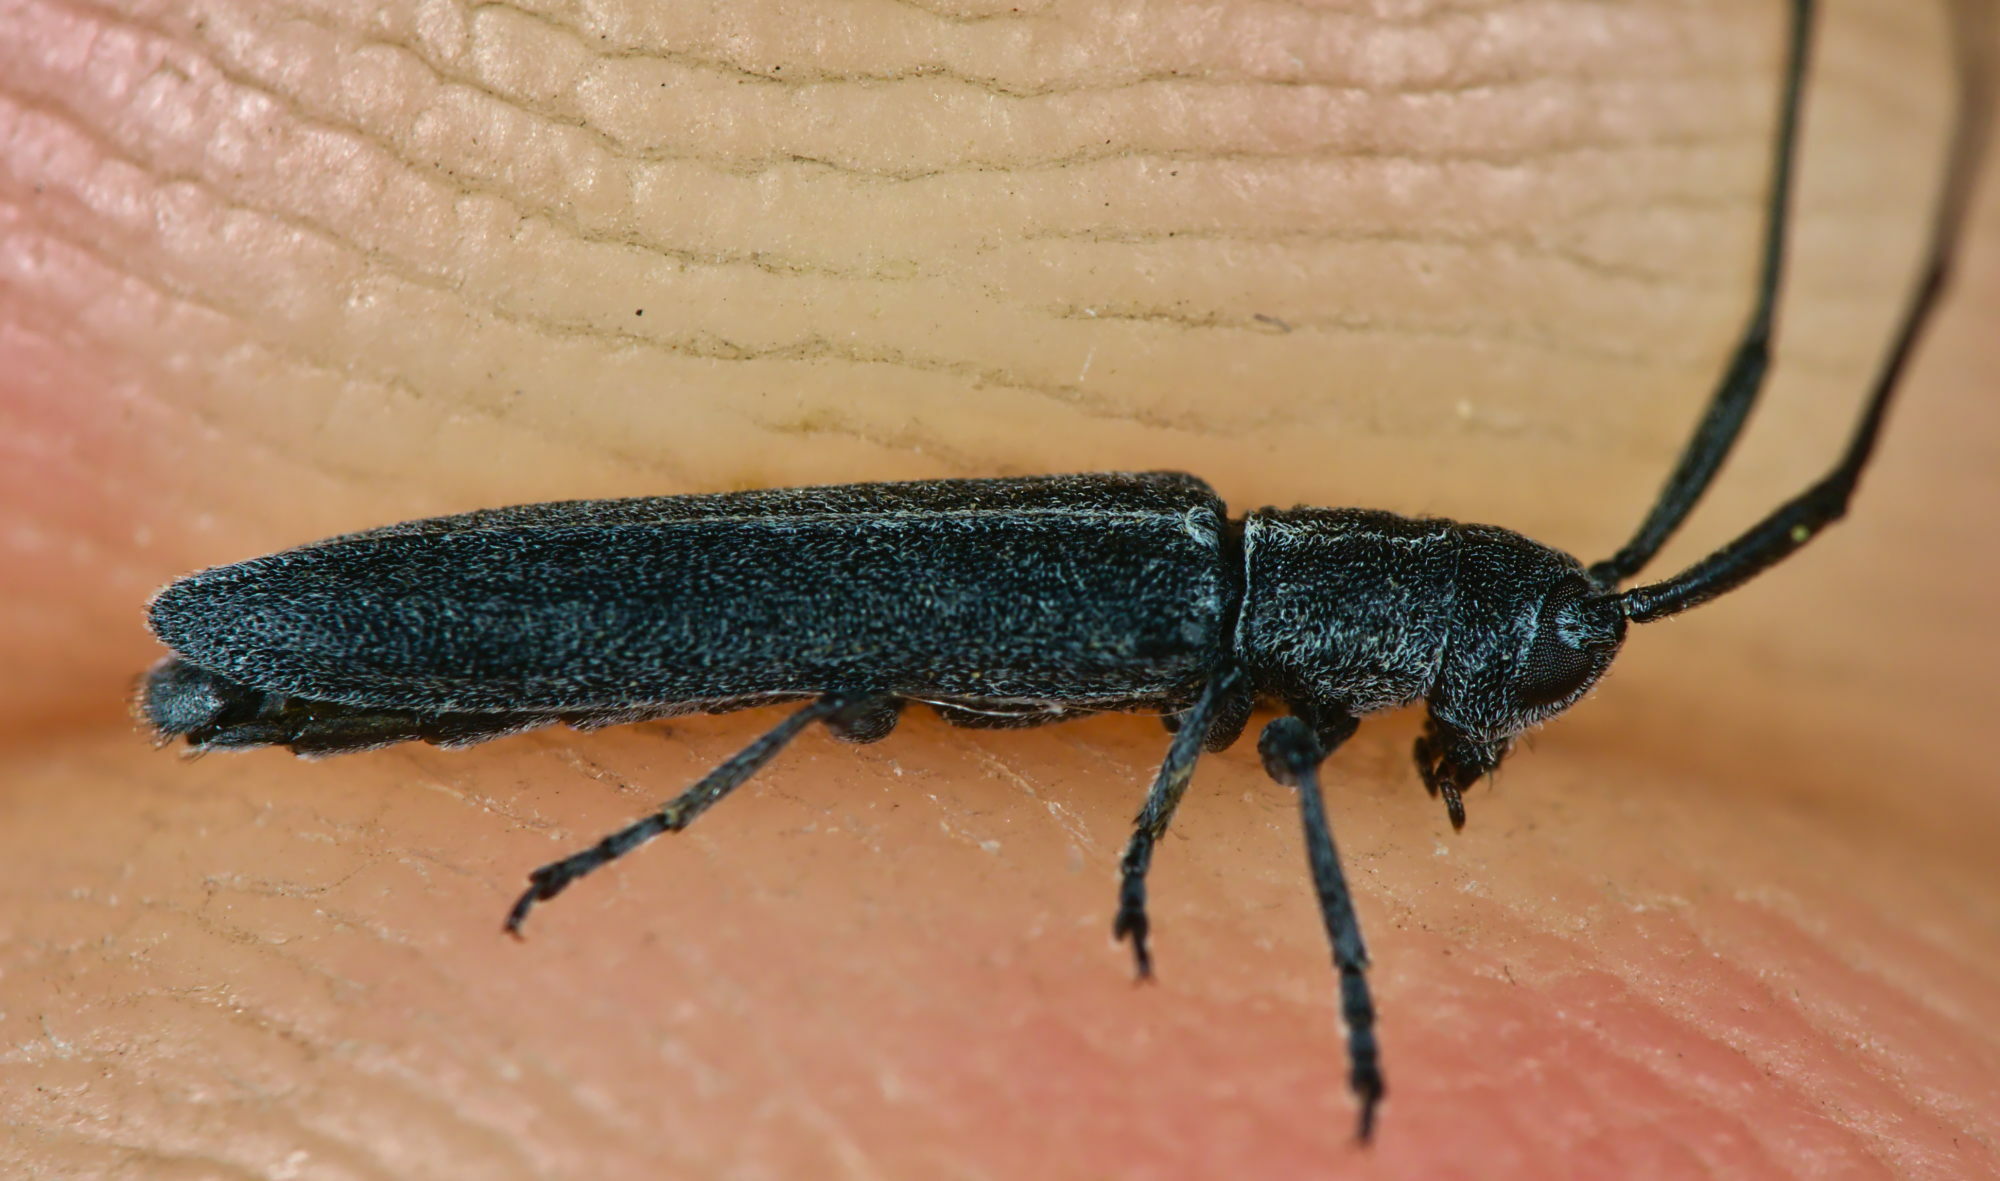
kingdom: Animalia
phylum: Arthropoda
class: Insecta
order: Coleoptera
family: Cerambycidae
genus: Calamobius
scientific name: Calamobius filum
